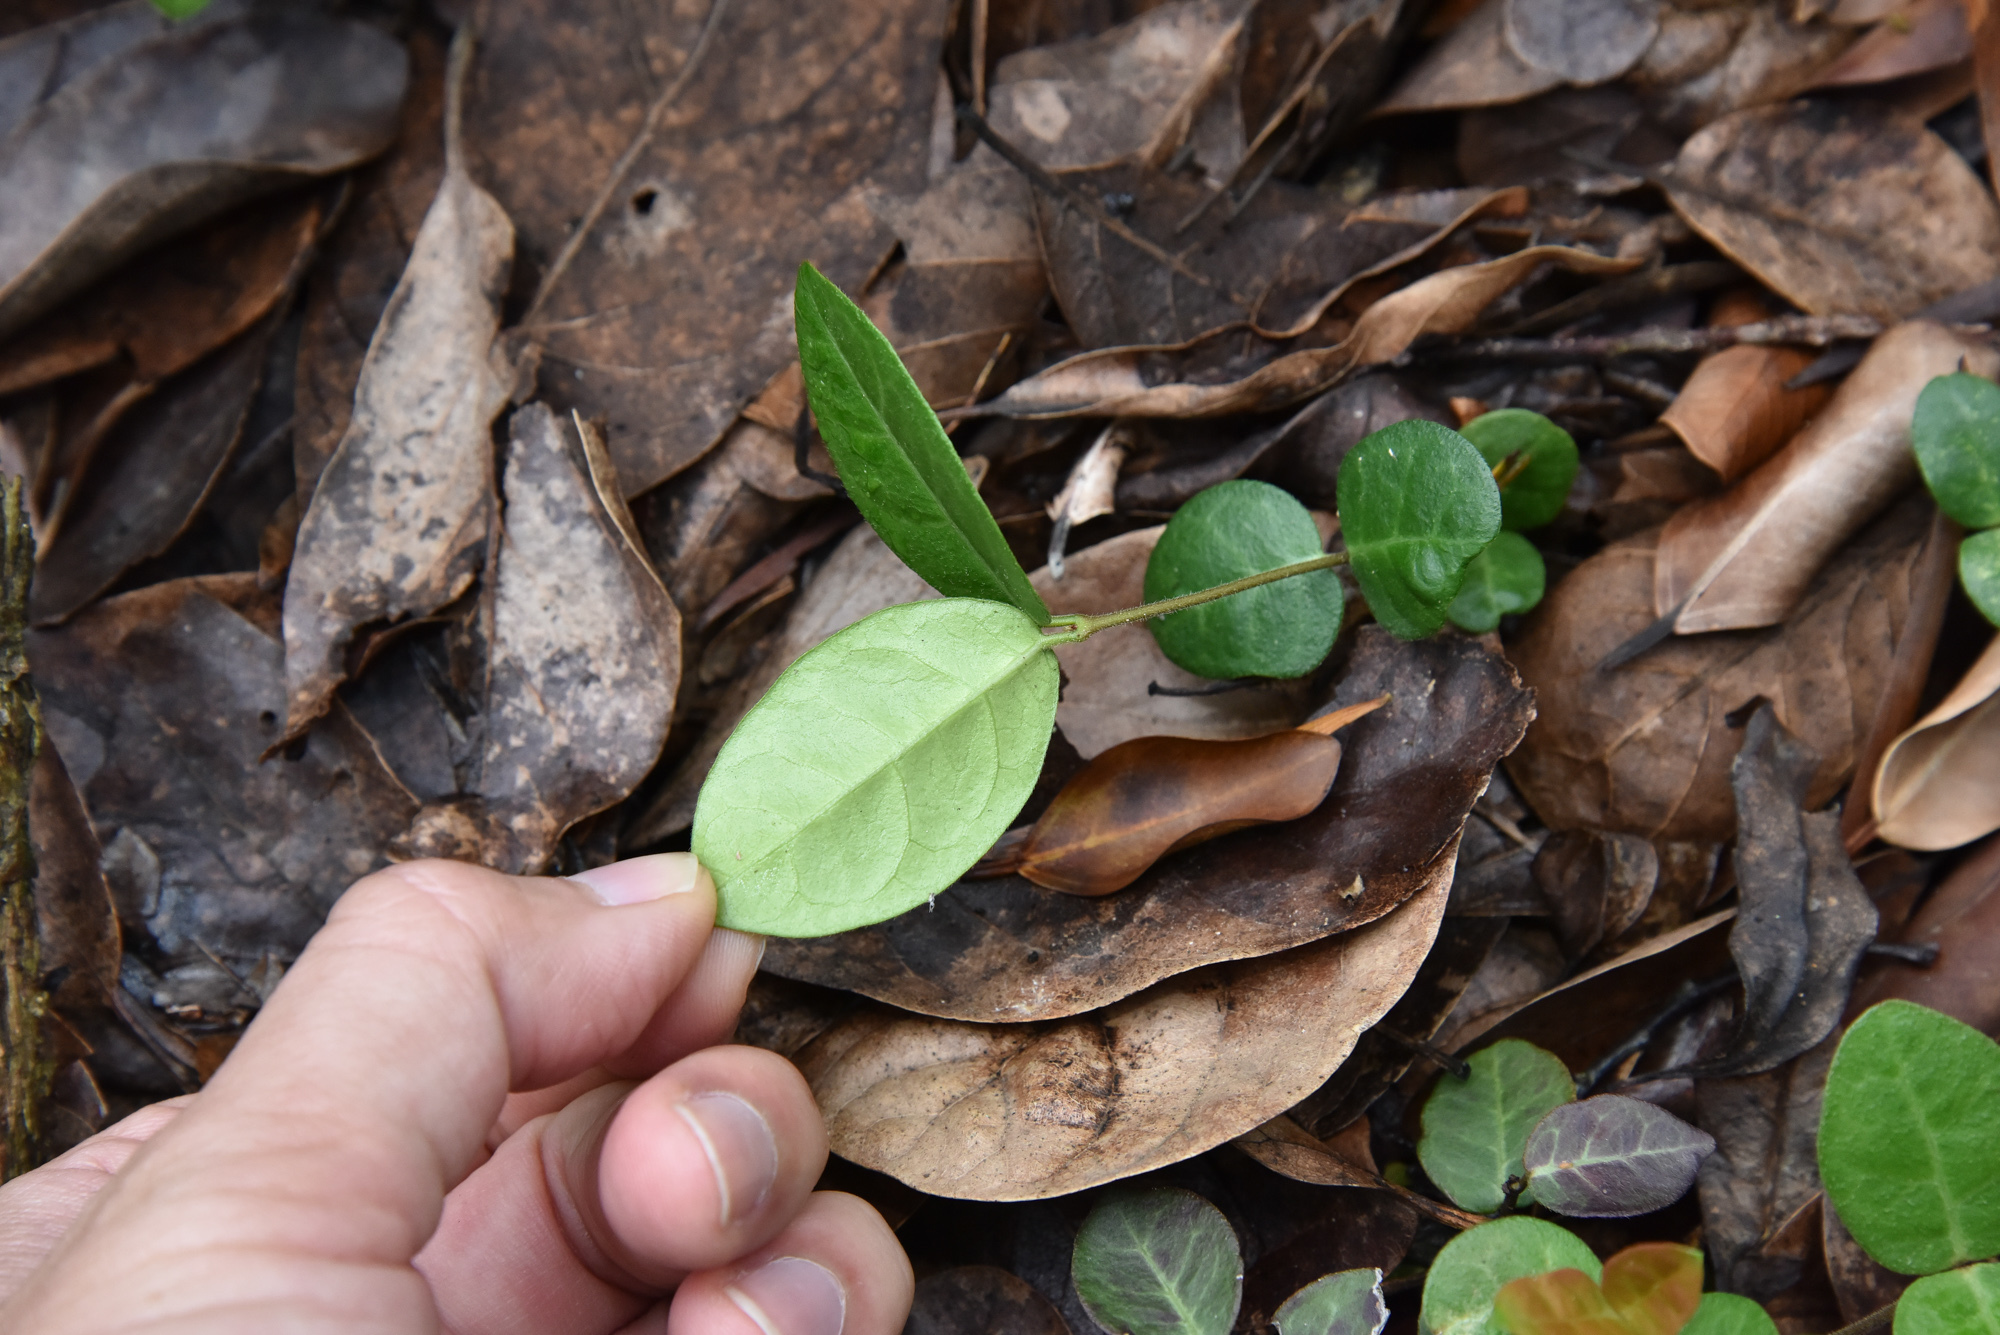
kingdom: Plantae
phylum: Tracheophyta
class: Magnoliopsida
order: Gentianales
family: Apocynaceae
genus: Trachelospermum
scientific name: Trachelospermum jasminoides
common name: Confederate jasmine
